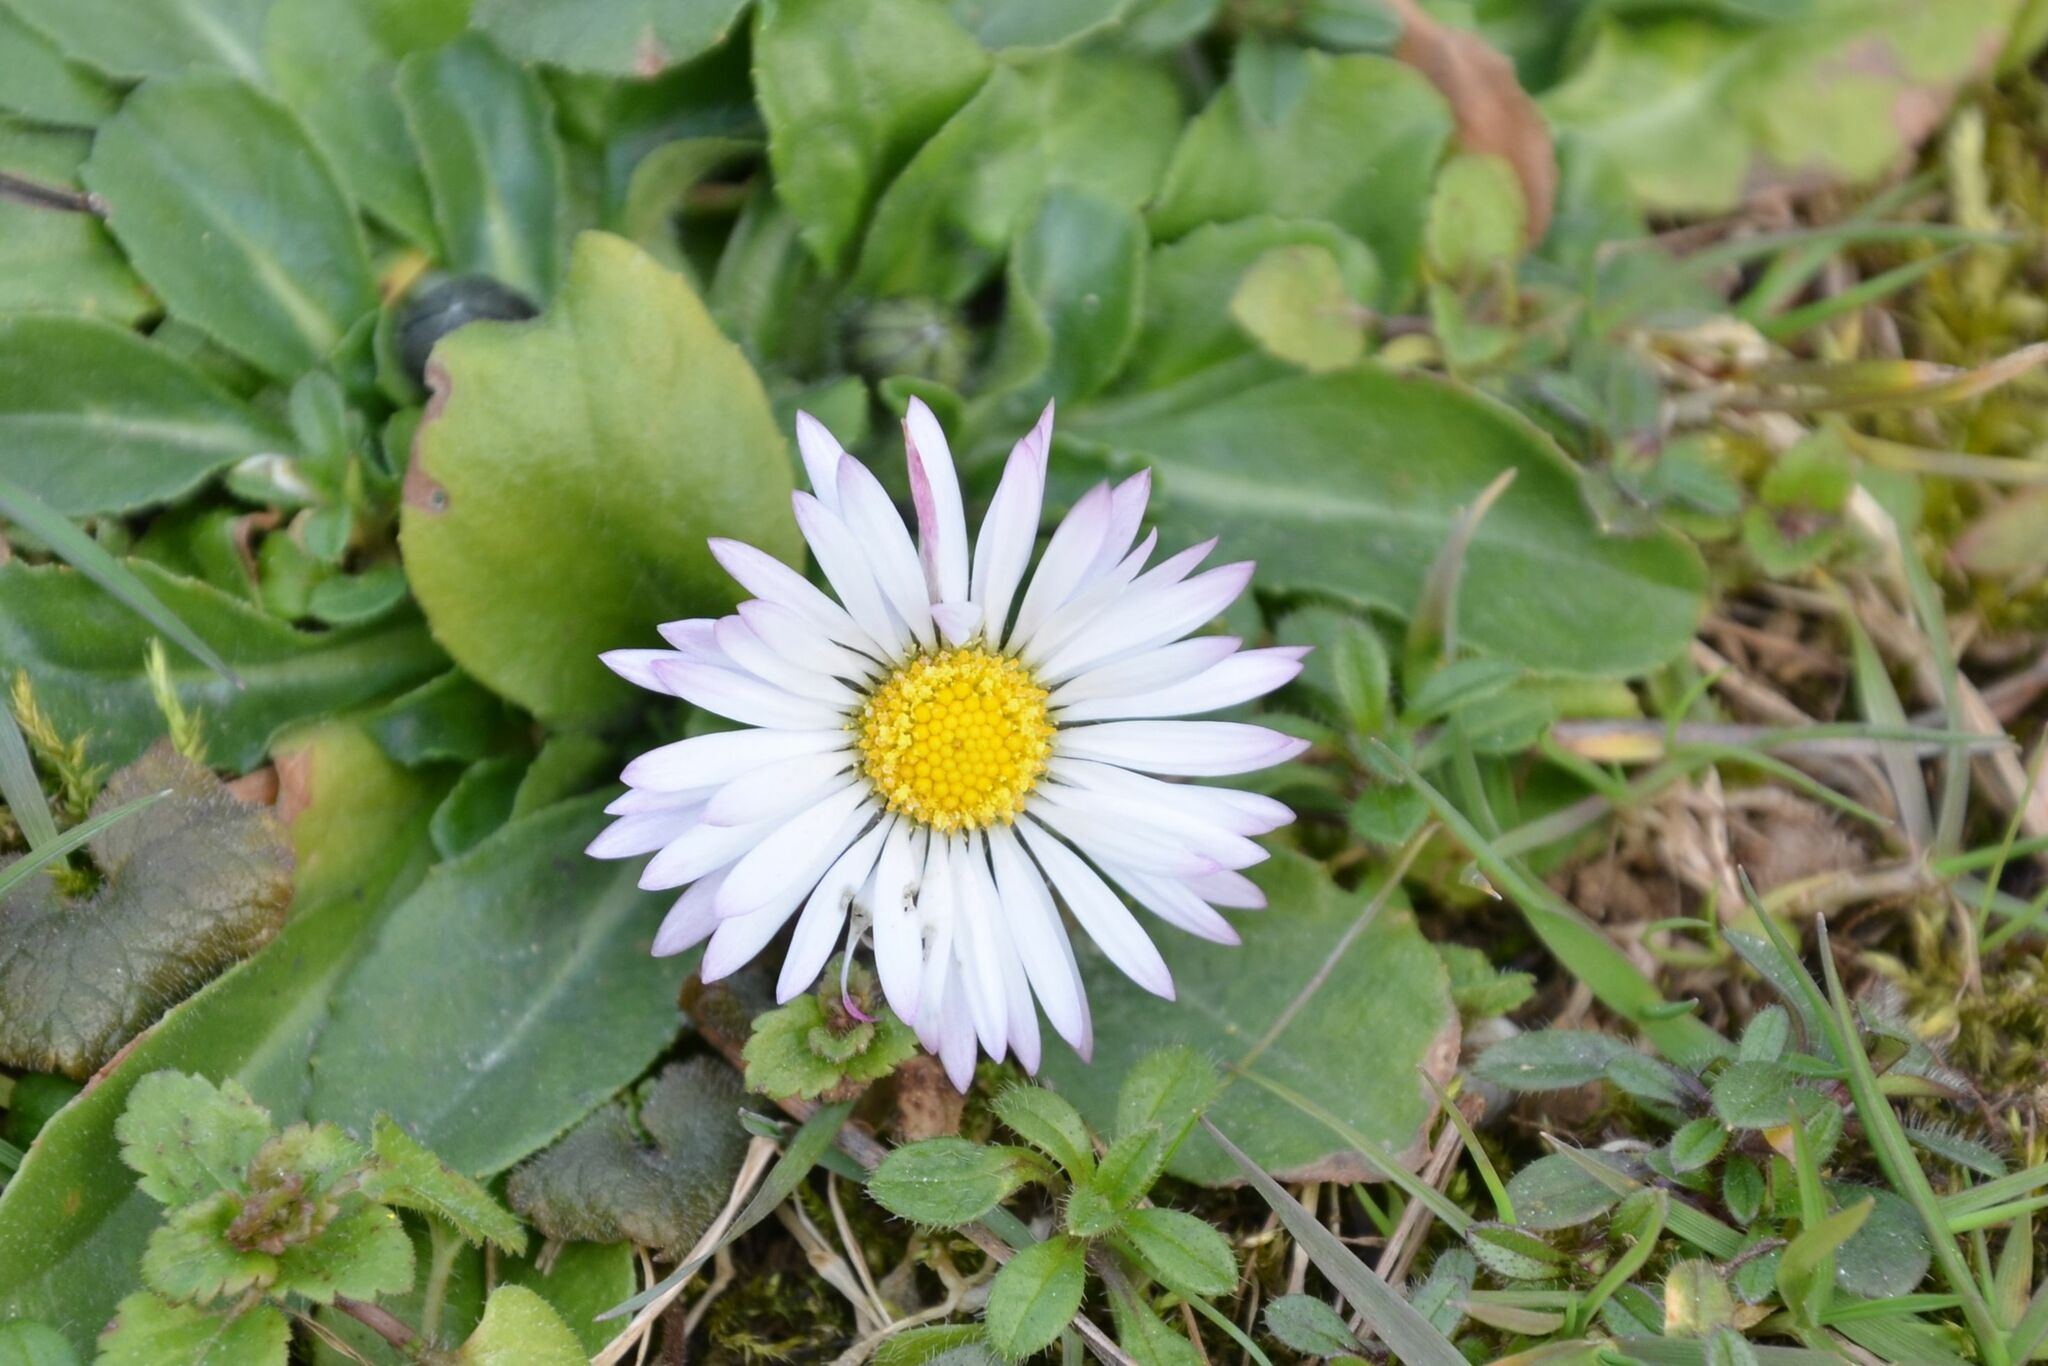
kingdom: Plantae
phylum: Tracheophyta
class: Magnoliopsida
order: Asterales
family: Asteraceae
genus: Bellis
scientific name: Bellis perennis
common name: Lawndaisy
